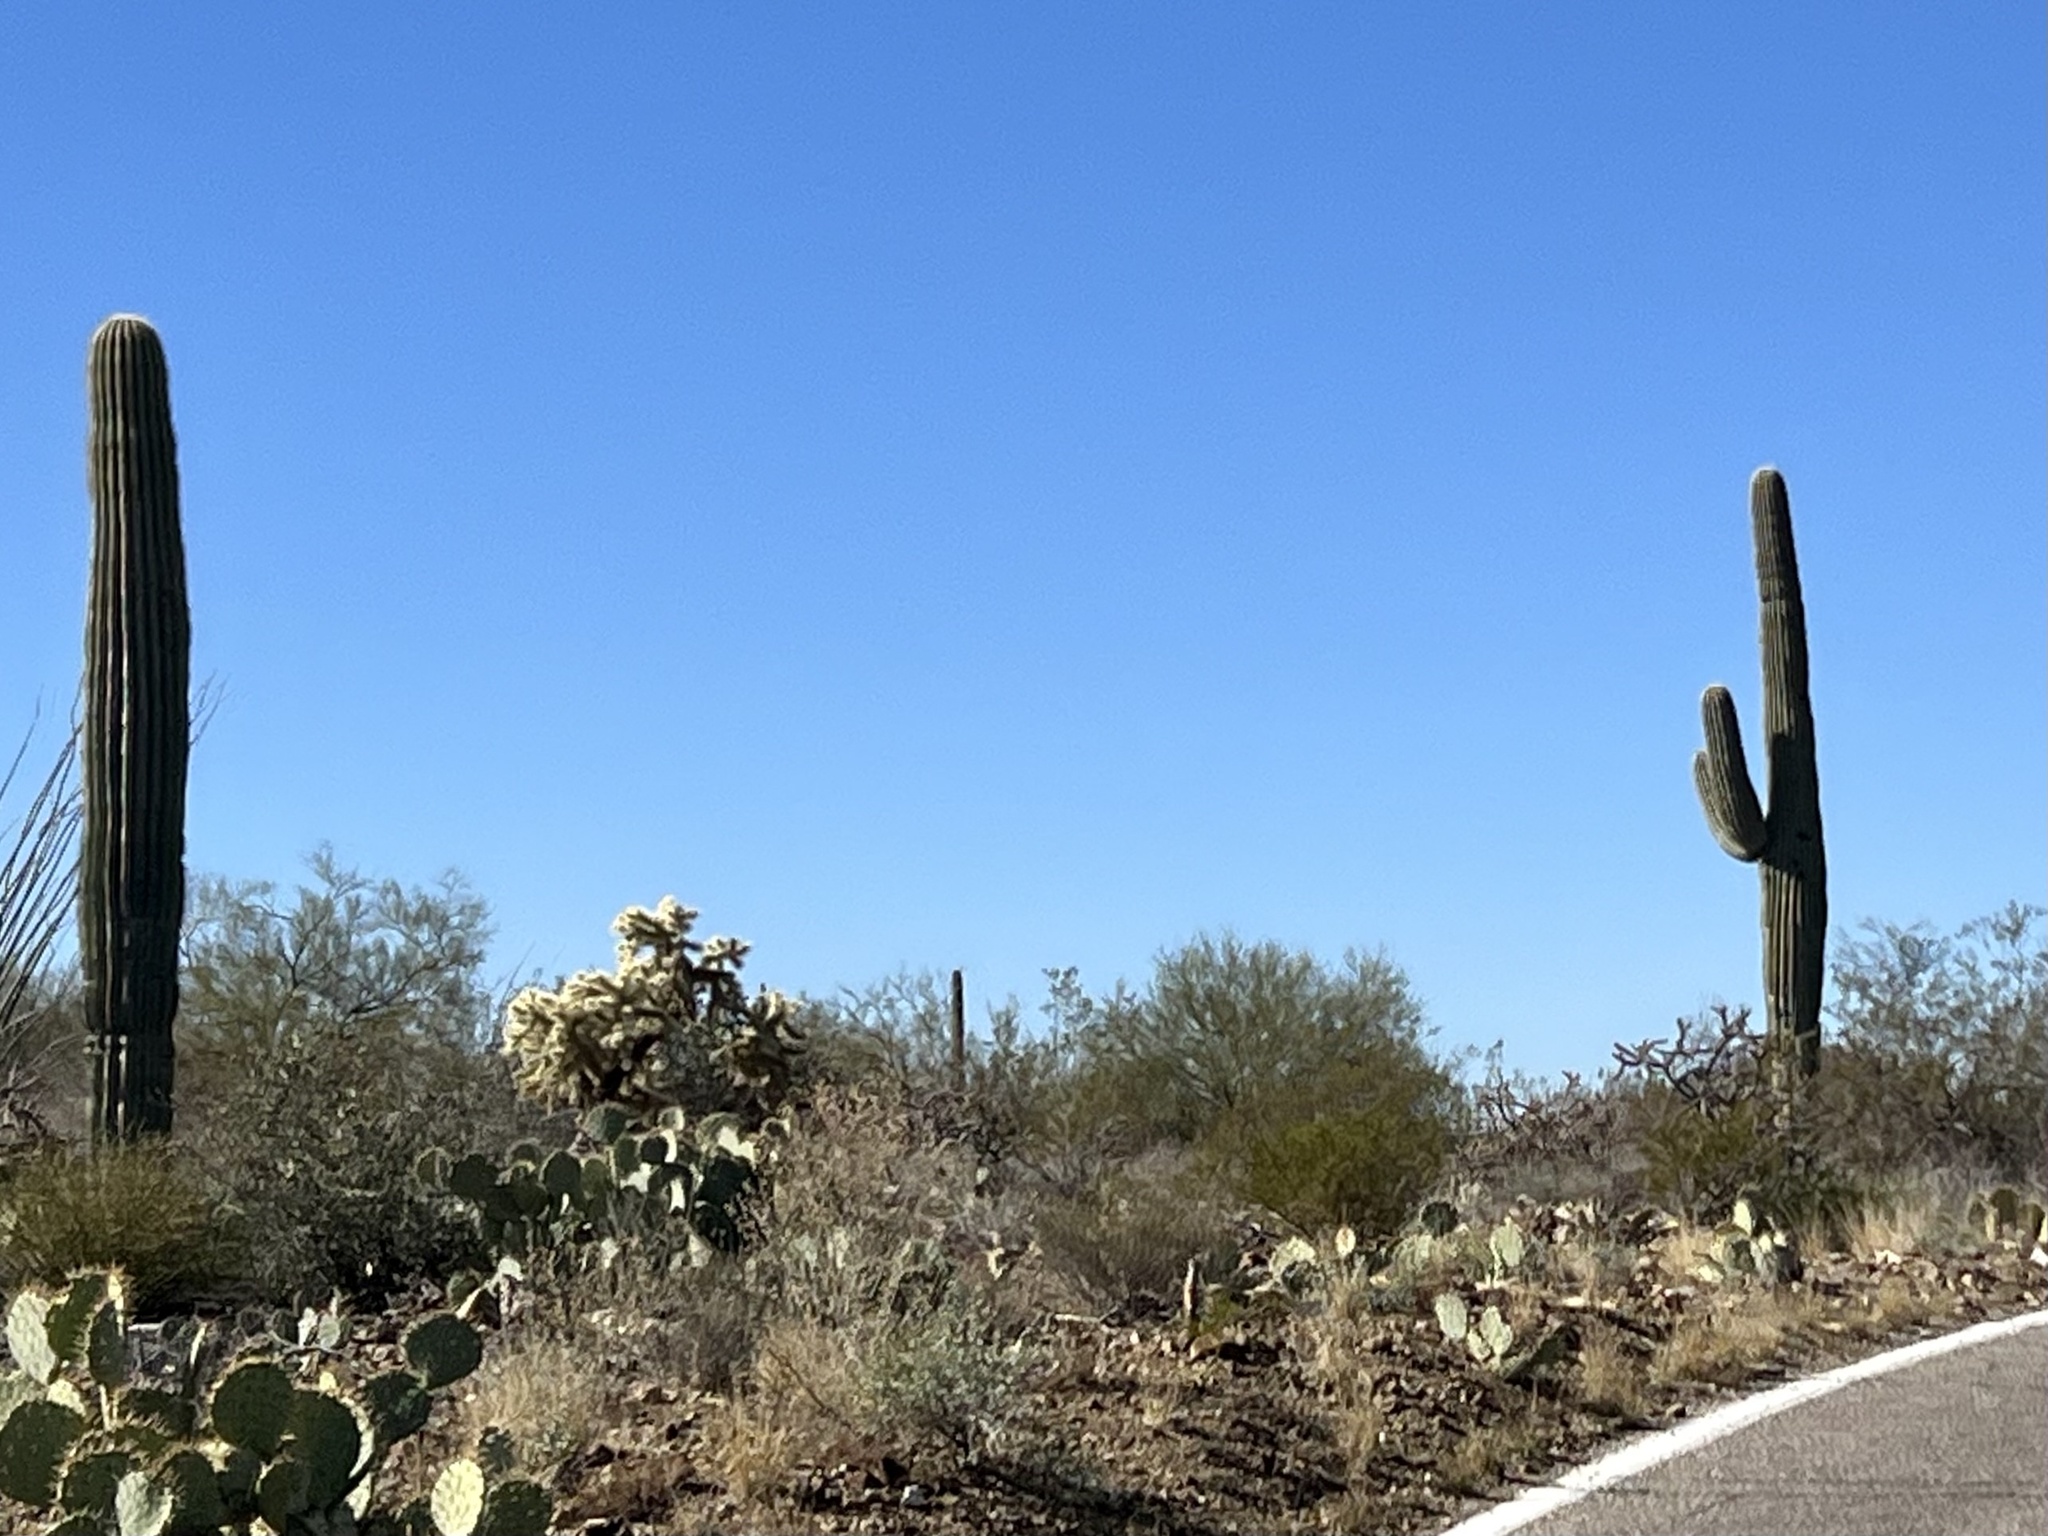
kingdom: Plantae
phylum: Tracheophyta
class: Magnoliopsida
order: Caryophyllales
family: Cactaceae
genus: Carnegiea
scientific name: Carnegiea gigantea
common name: Saguaro
